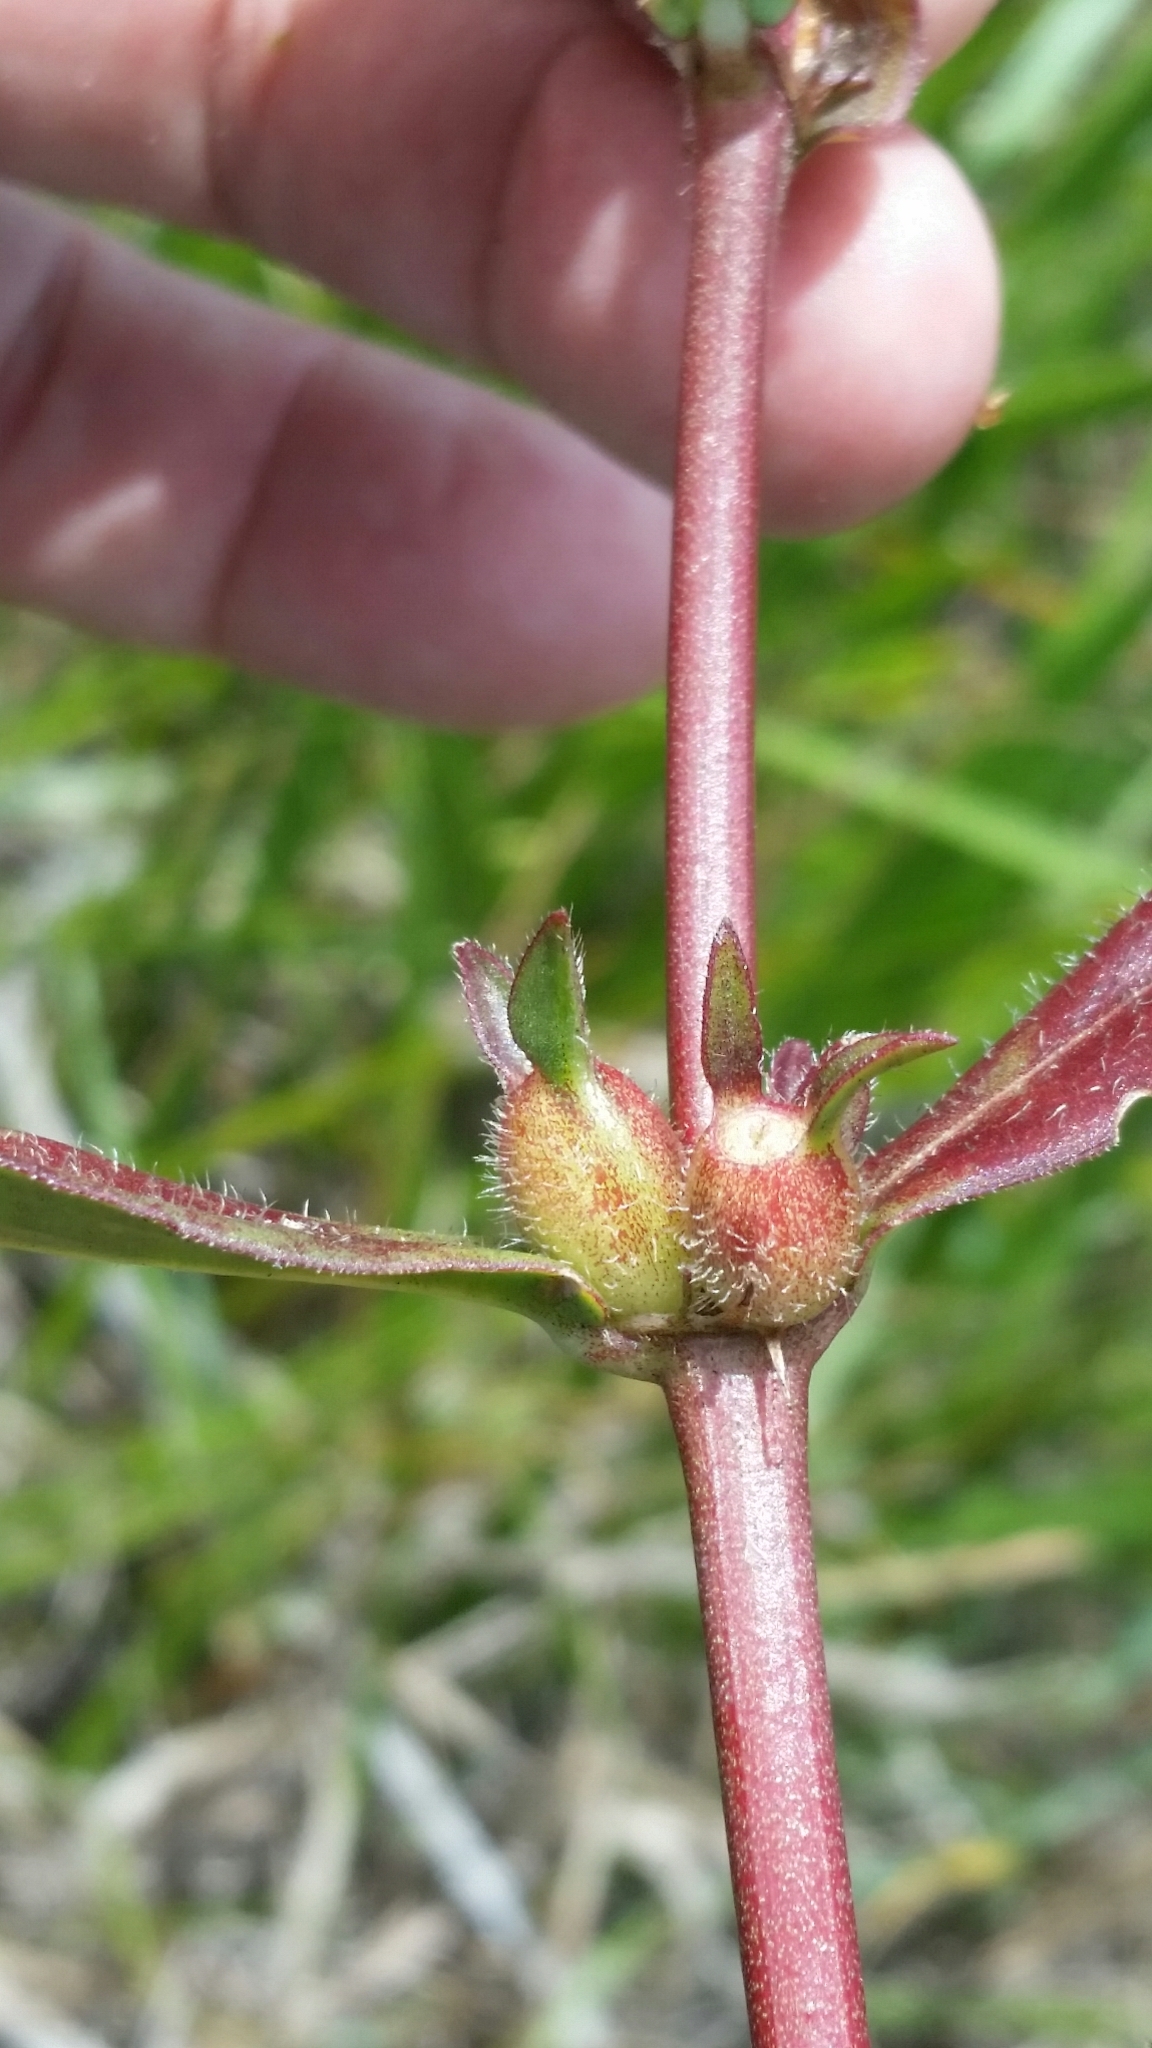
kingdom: Plantae
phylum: Tracheophyta
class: Magnoliopsida
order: Gentianales
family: Rubiaceae
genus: Diodia
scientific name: Diodia virginiana
